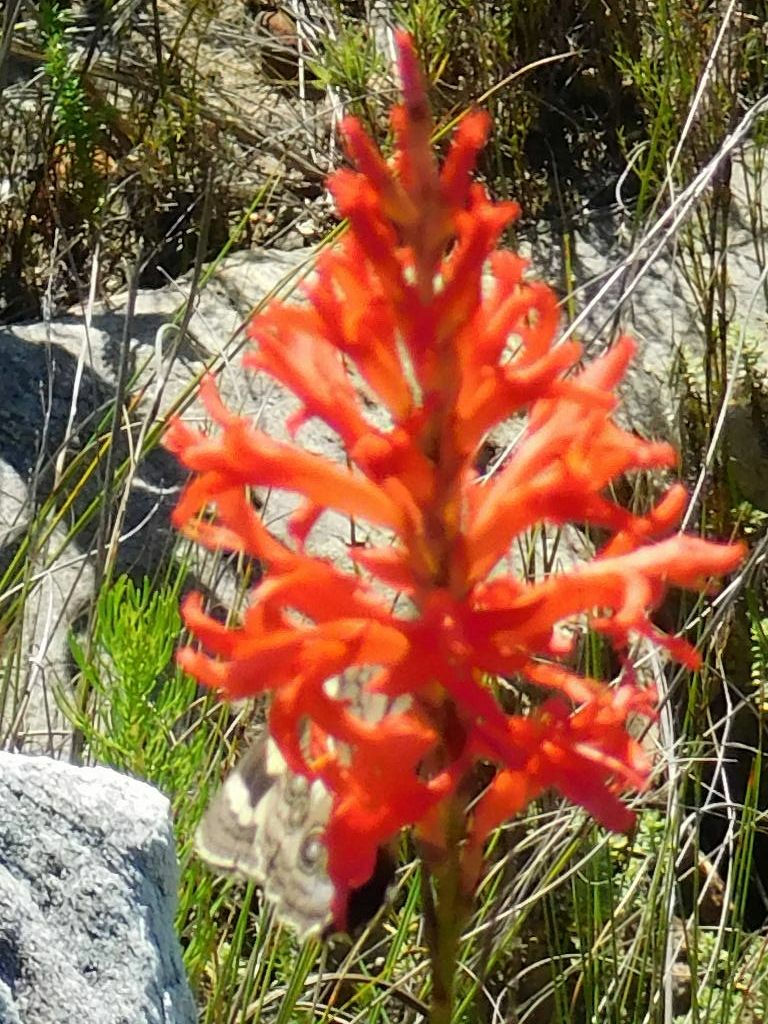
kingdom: Animalia
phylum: Arthropoda
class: Insecta
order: Lepidoptera
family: Nymphalidae
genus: Meneris
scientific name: Meneris Aeropetes tulbaghia
